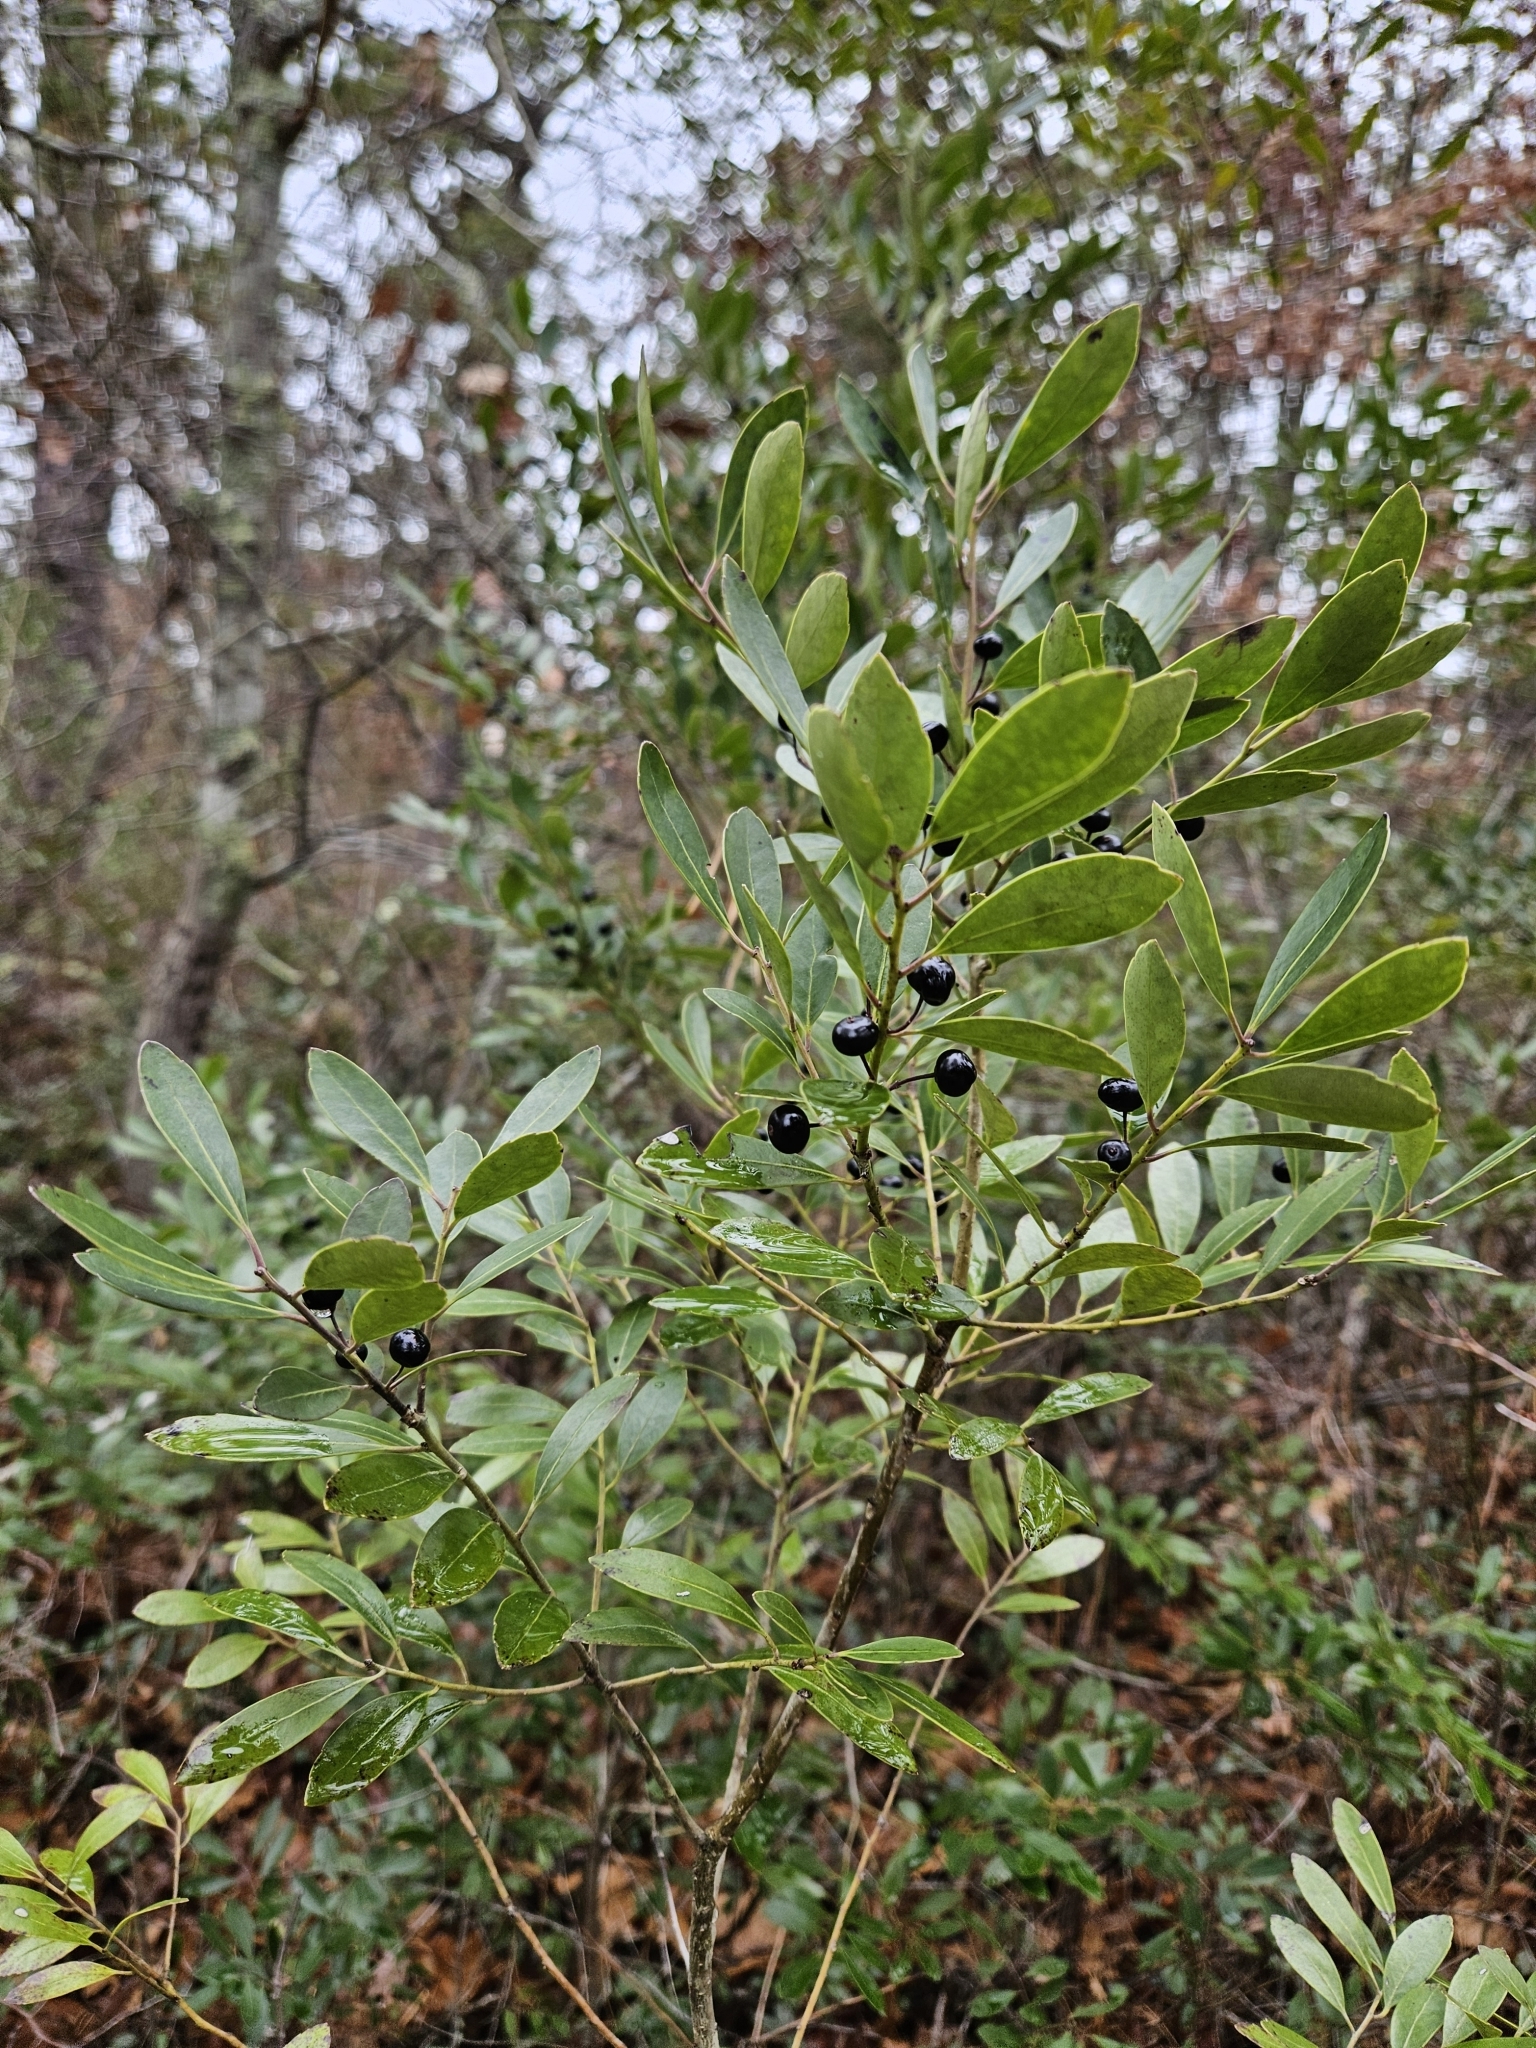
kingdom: Plantae
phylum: Tracheophyta
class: Magnoliopsida
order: Aquifoliales
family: Aquifoliaceae
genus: Ilex
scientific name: Ilex glabra
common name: Bitter gallberry
